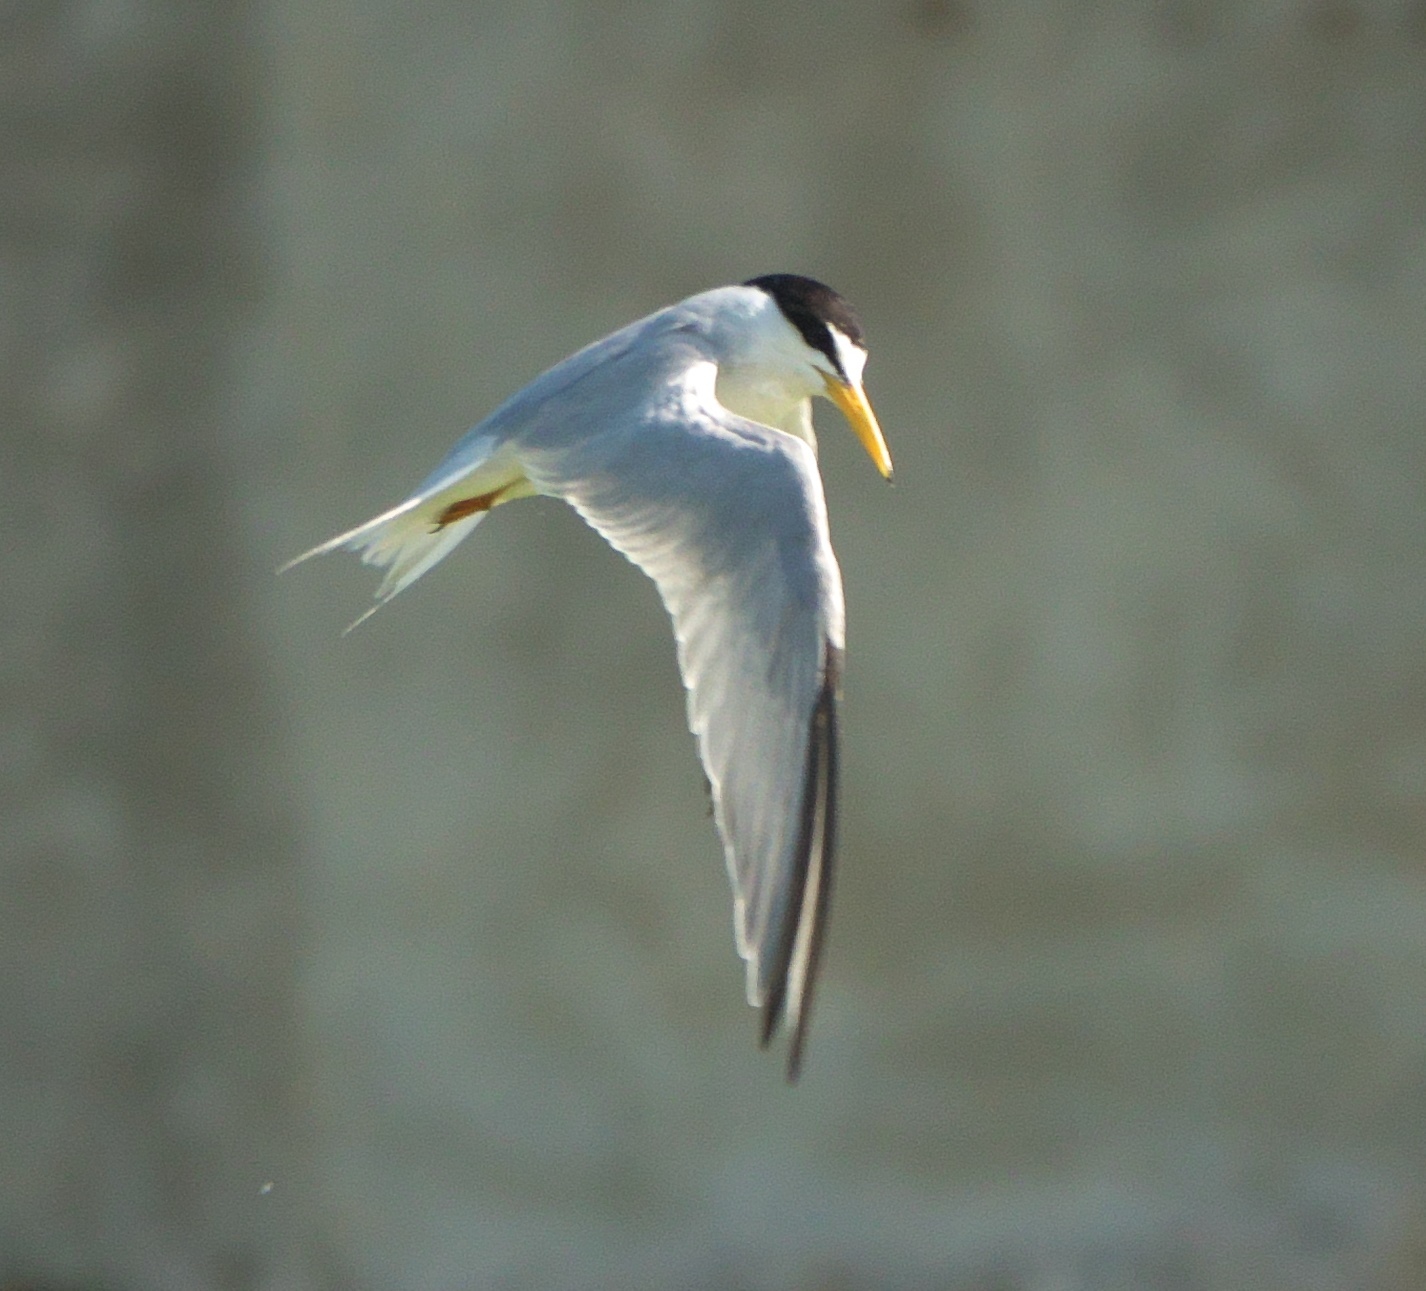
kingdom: Animalia
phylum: Chordata
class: Aves
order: Charadriiformes
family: Laridae
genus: Sternula
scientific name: Sternula antillarum
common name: Least tern
